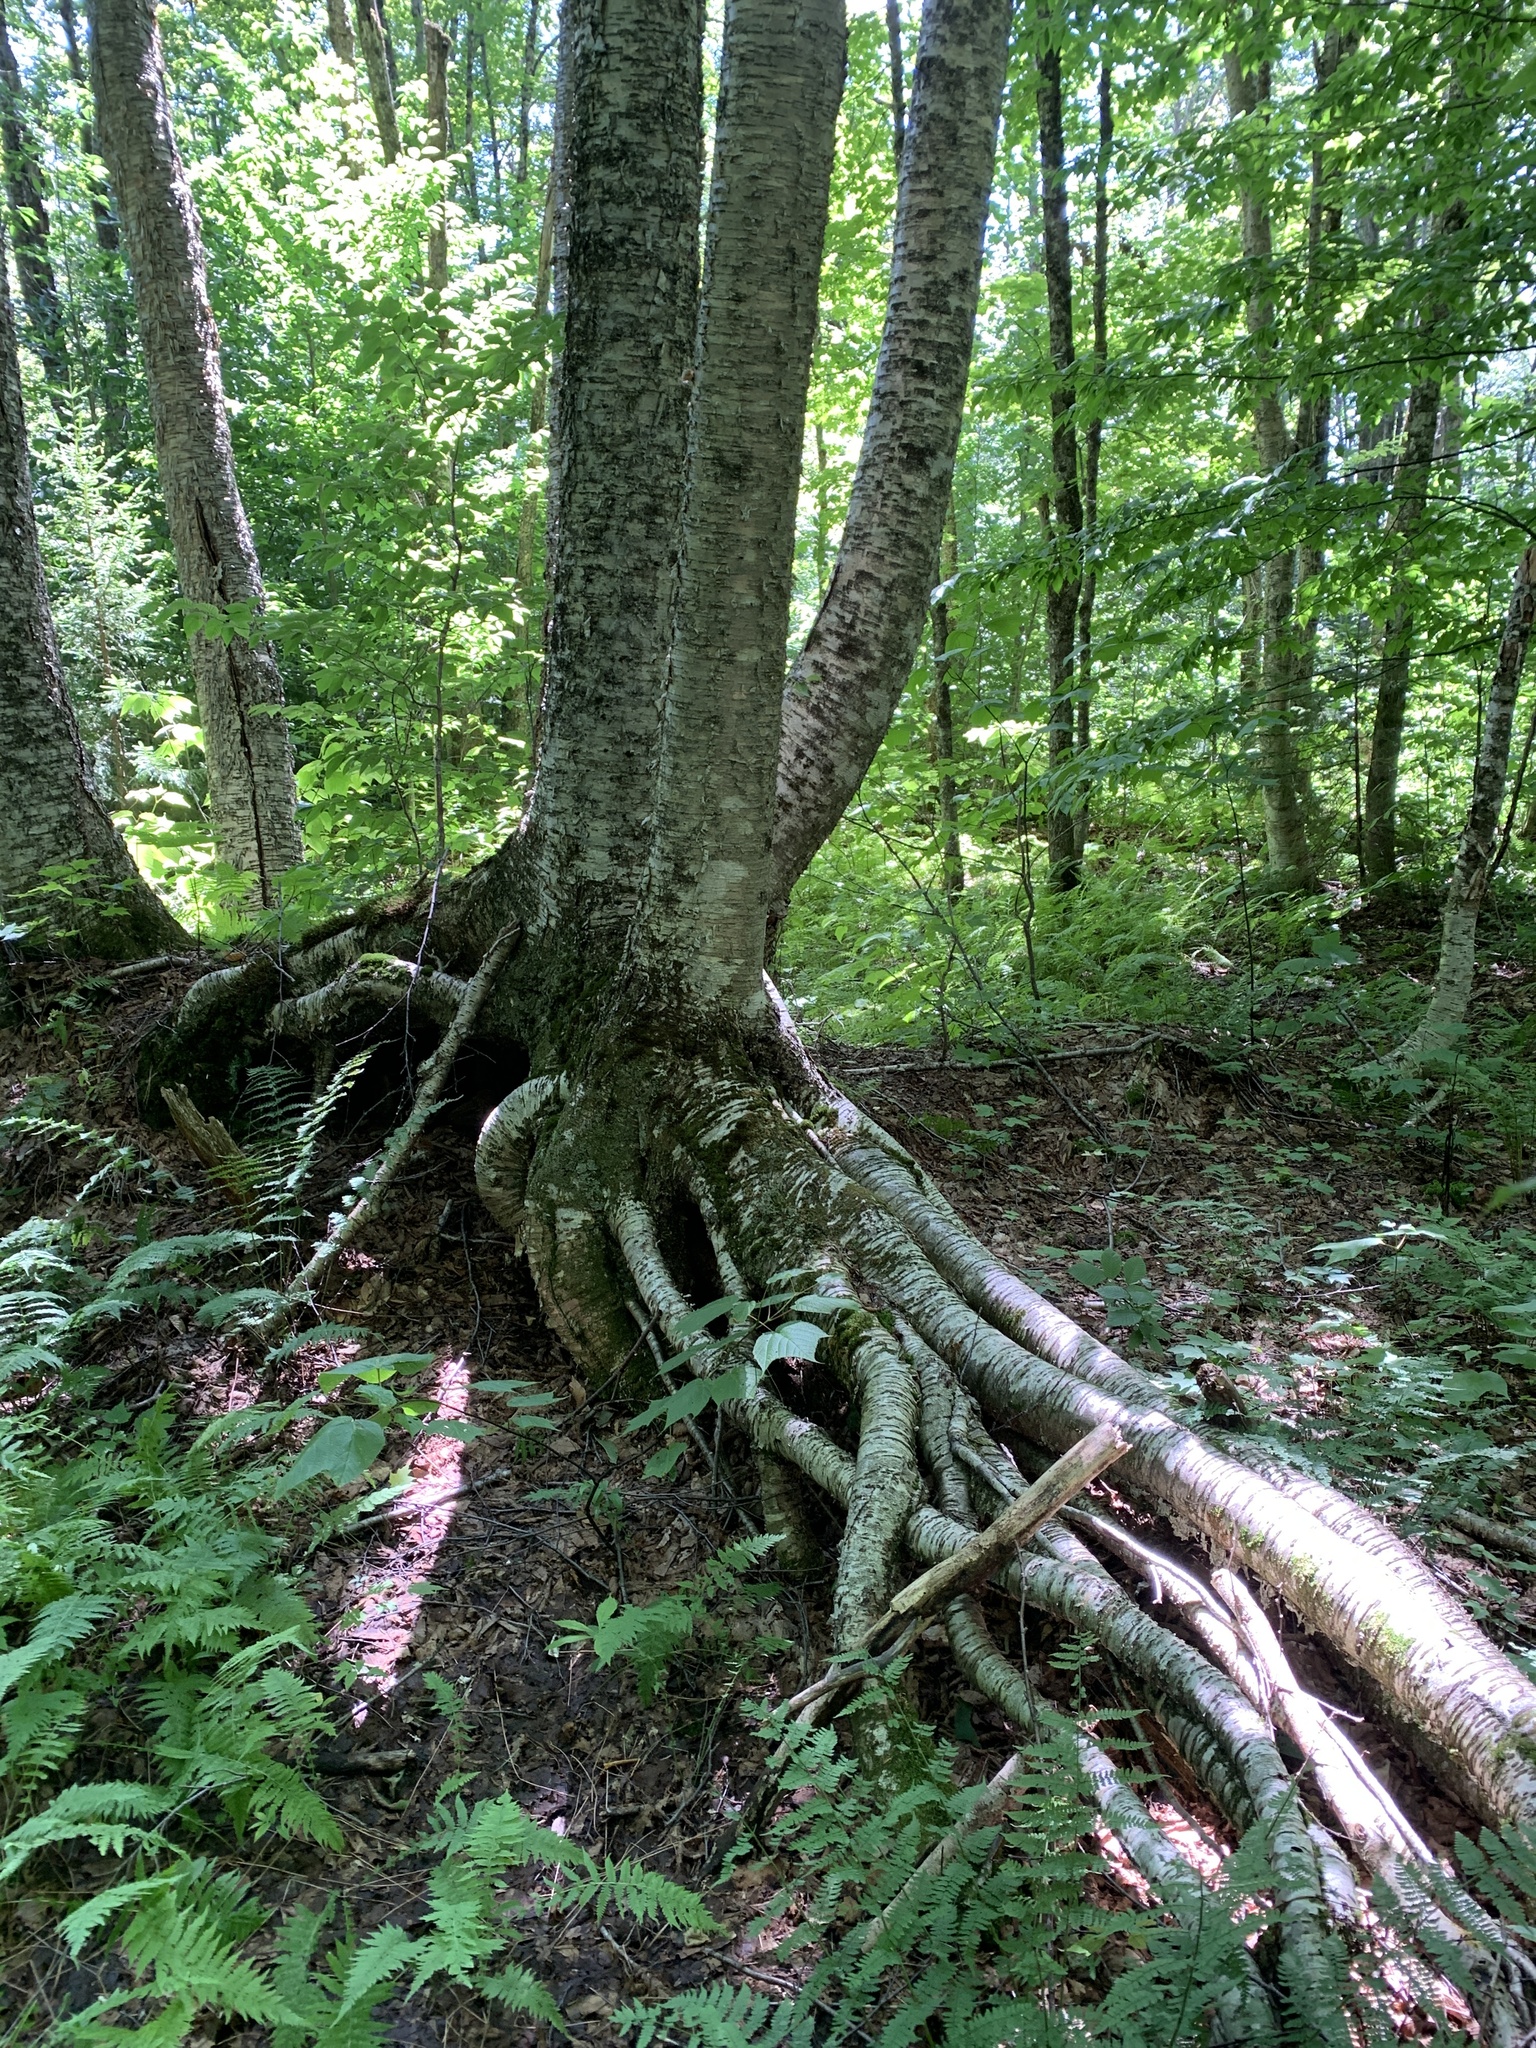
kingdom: Plantae
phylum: Tracheophyta
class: Magnoliopsida
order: Fagales
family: Betulaceae
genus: Betula
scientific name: Betula alleghaniensis
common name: Yellow birch
